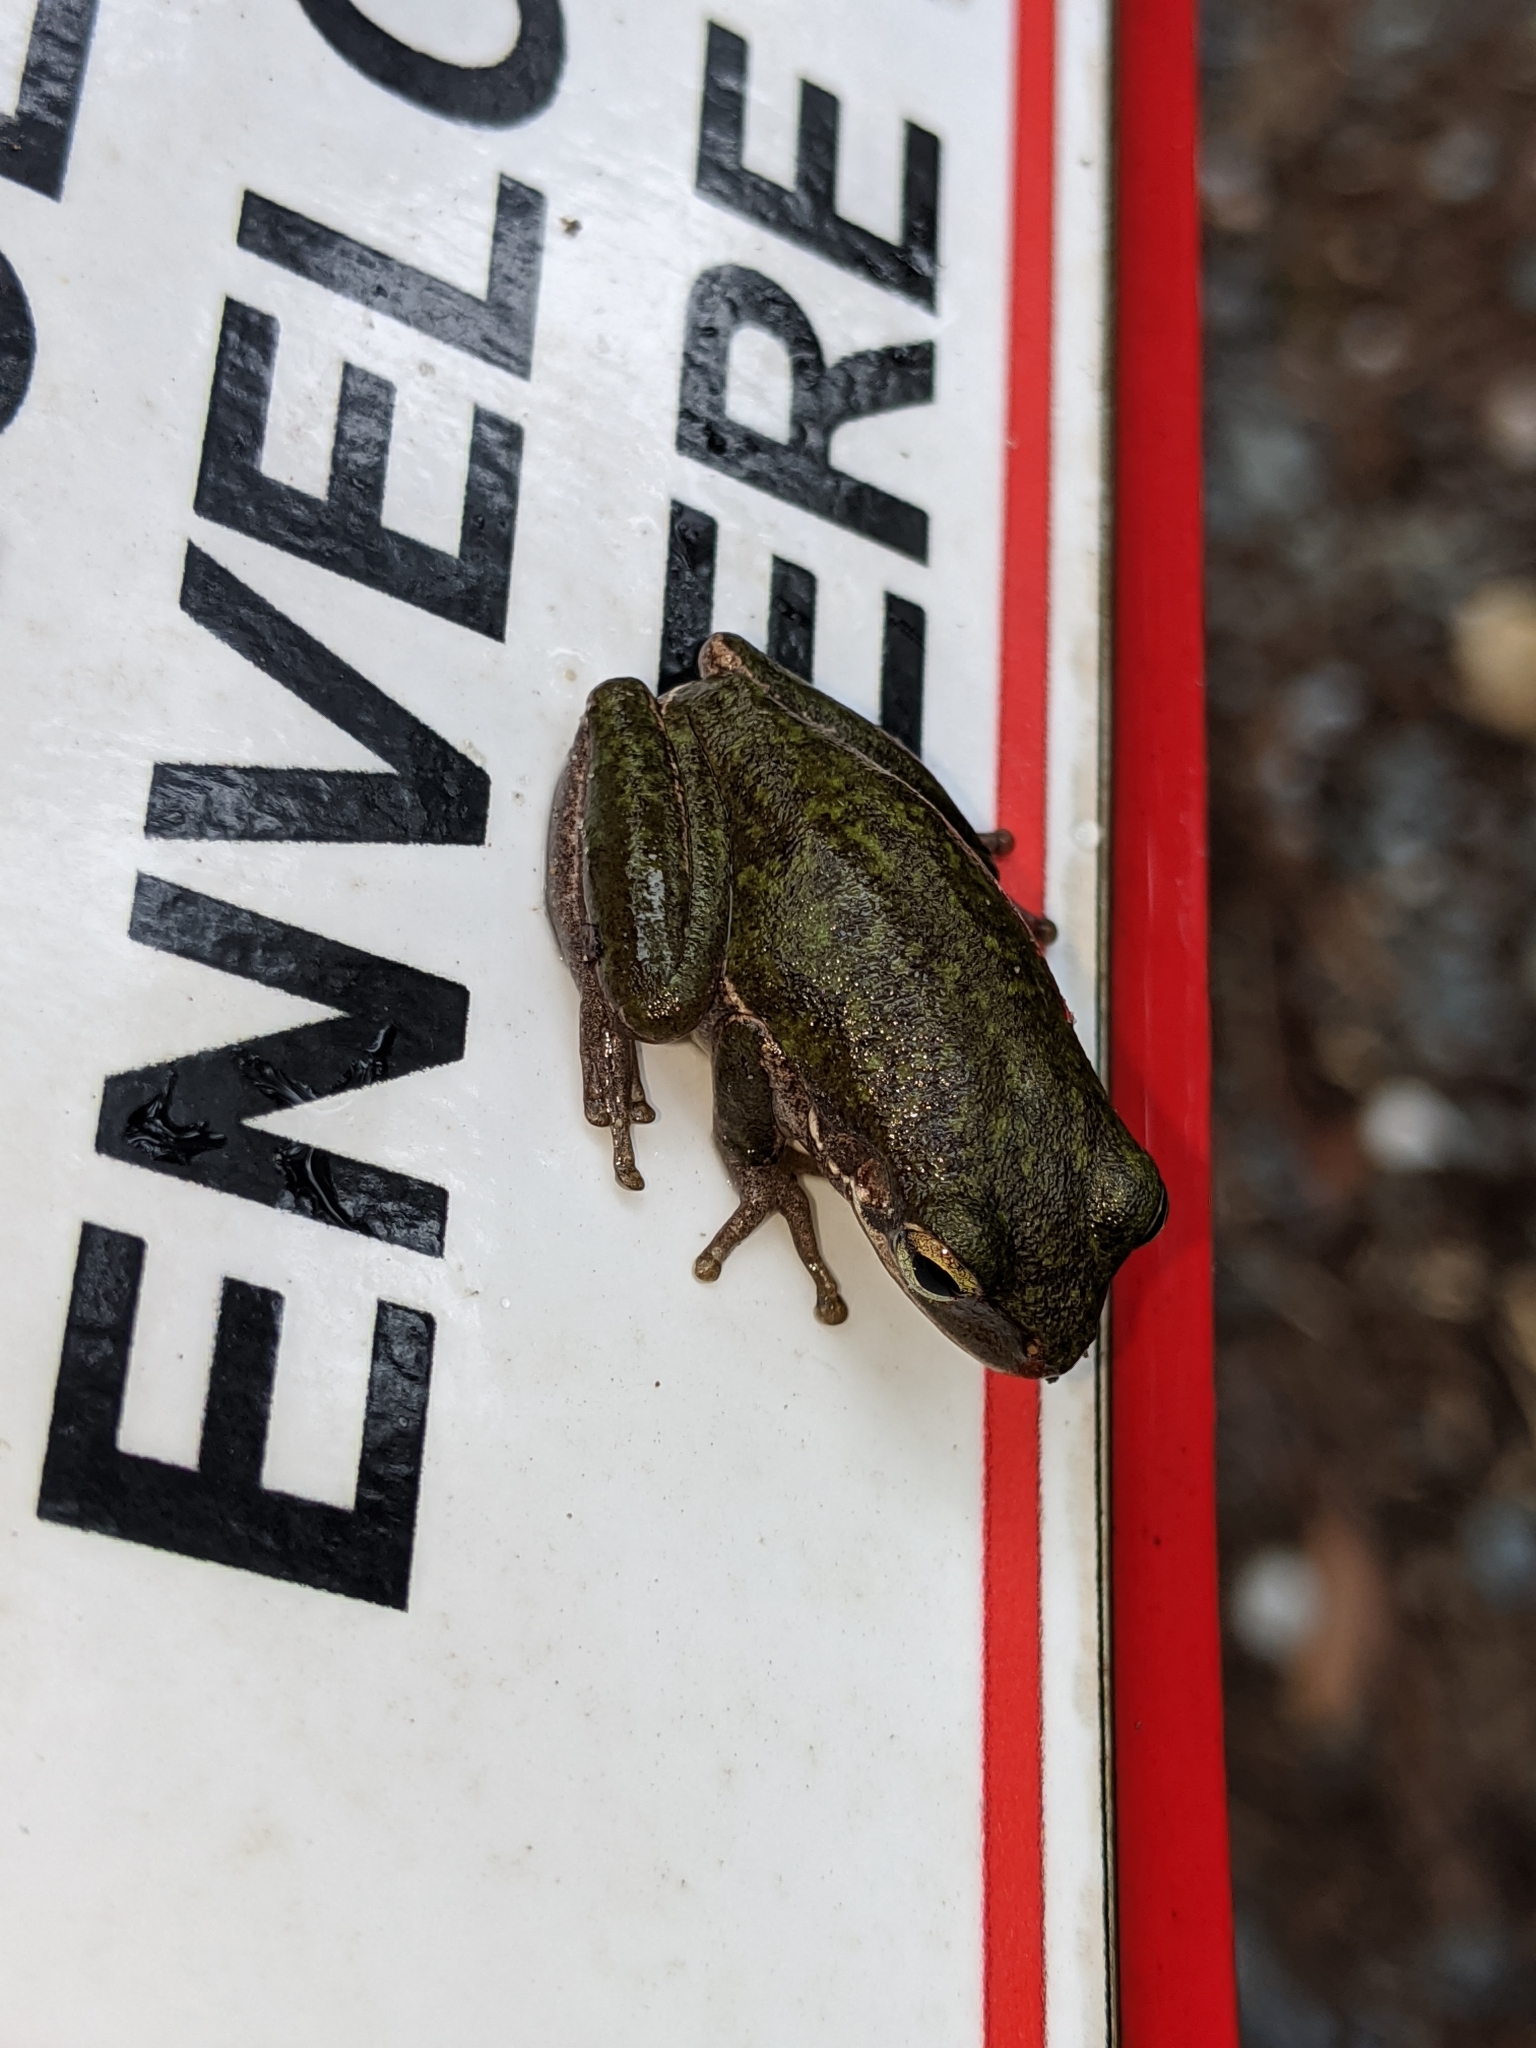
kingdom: Animalia
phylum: Chordata
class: Amphibia
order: Anura
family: Hylidae
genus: Dryophytes
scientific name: Dryophytes squirellus
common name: Squirrel treefrog
